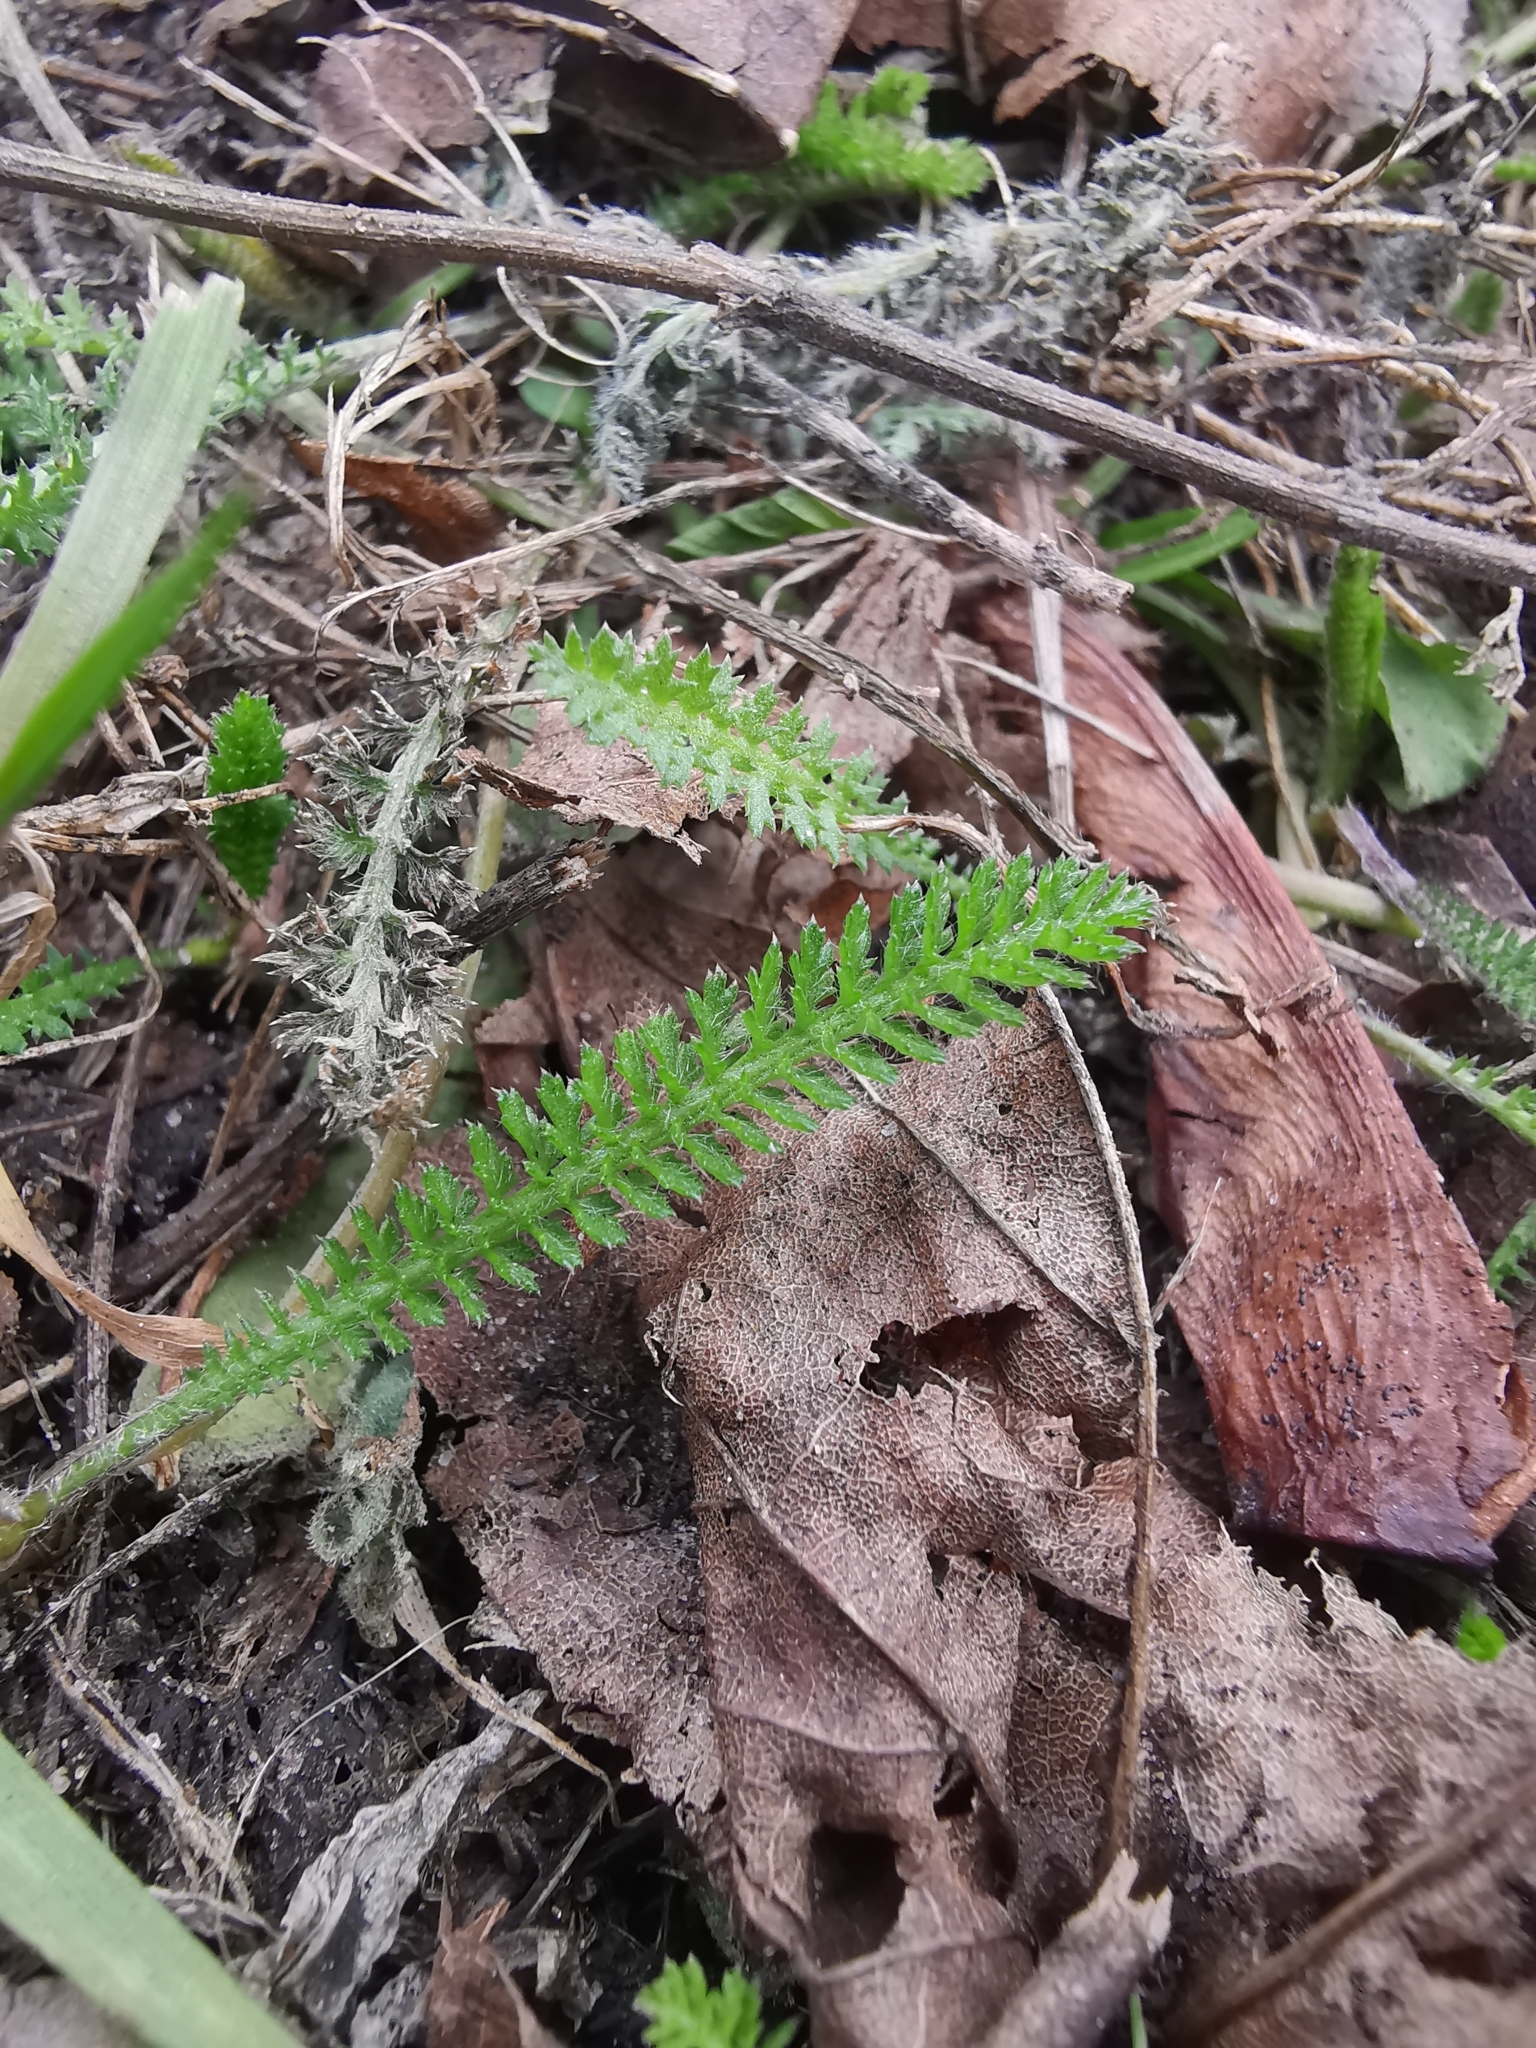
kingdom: Plantae
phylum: Tracheophyta
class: Magnoliopsida
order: Asterales
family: Asteraceae
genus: Achillea
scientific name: Achillea millefolium
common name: Yarrow
